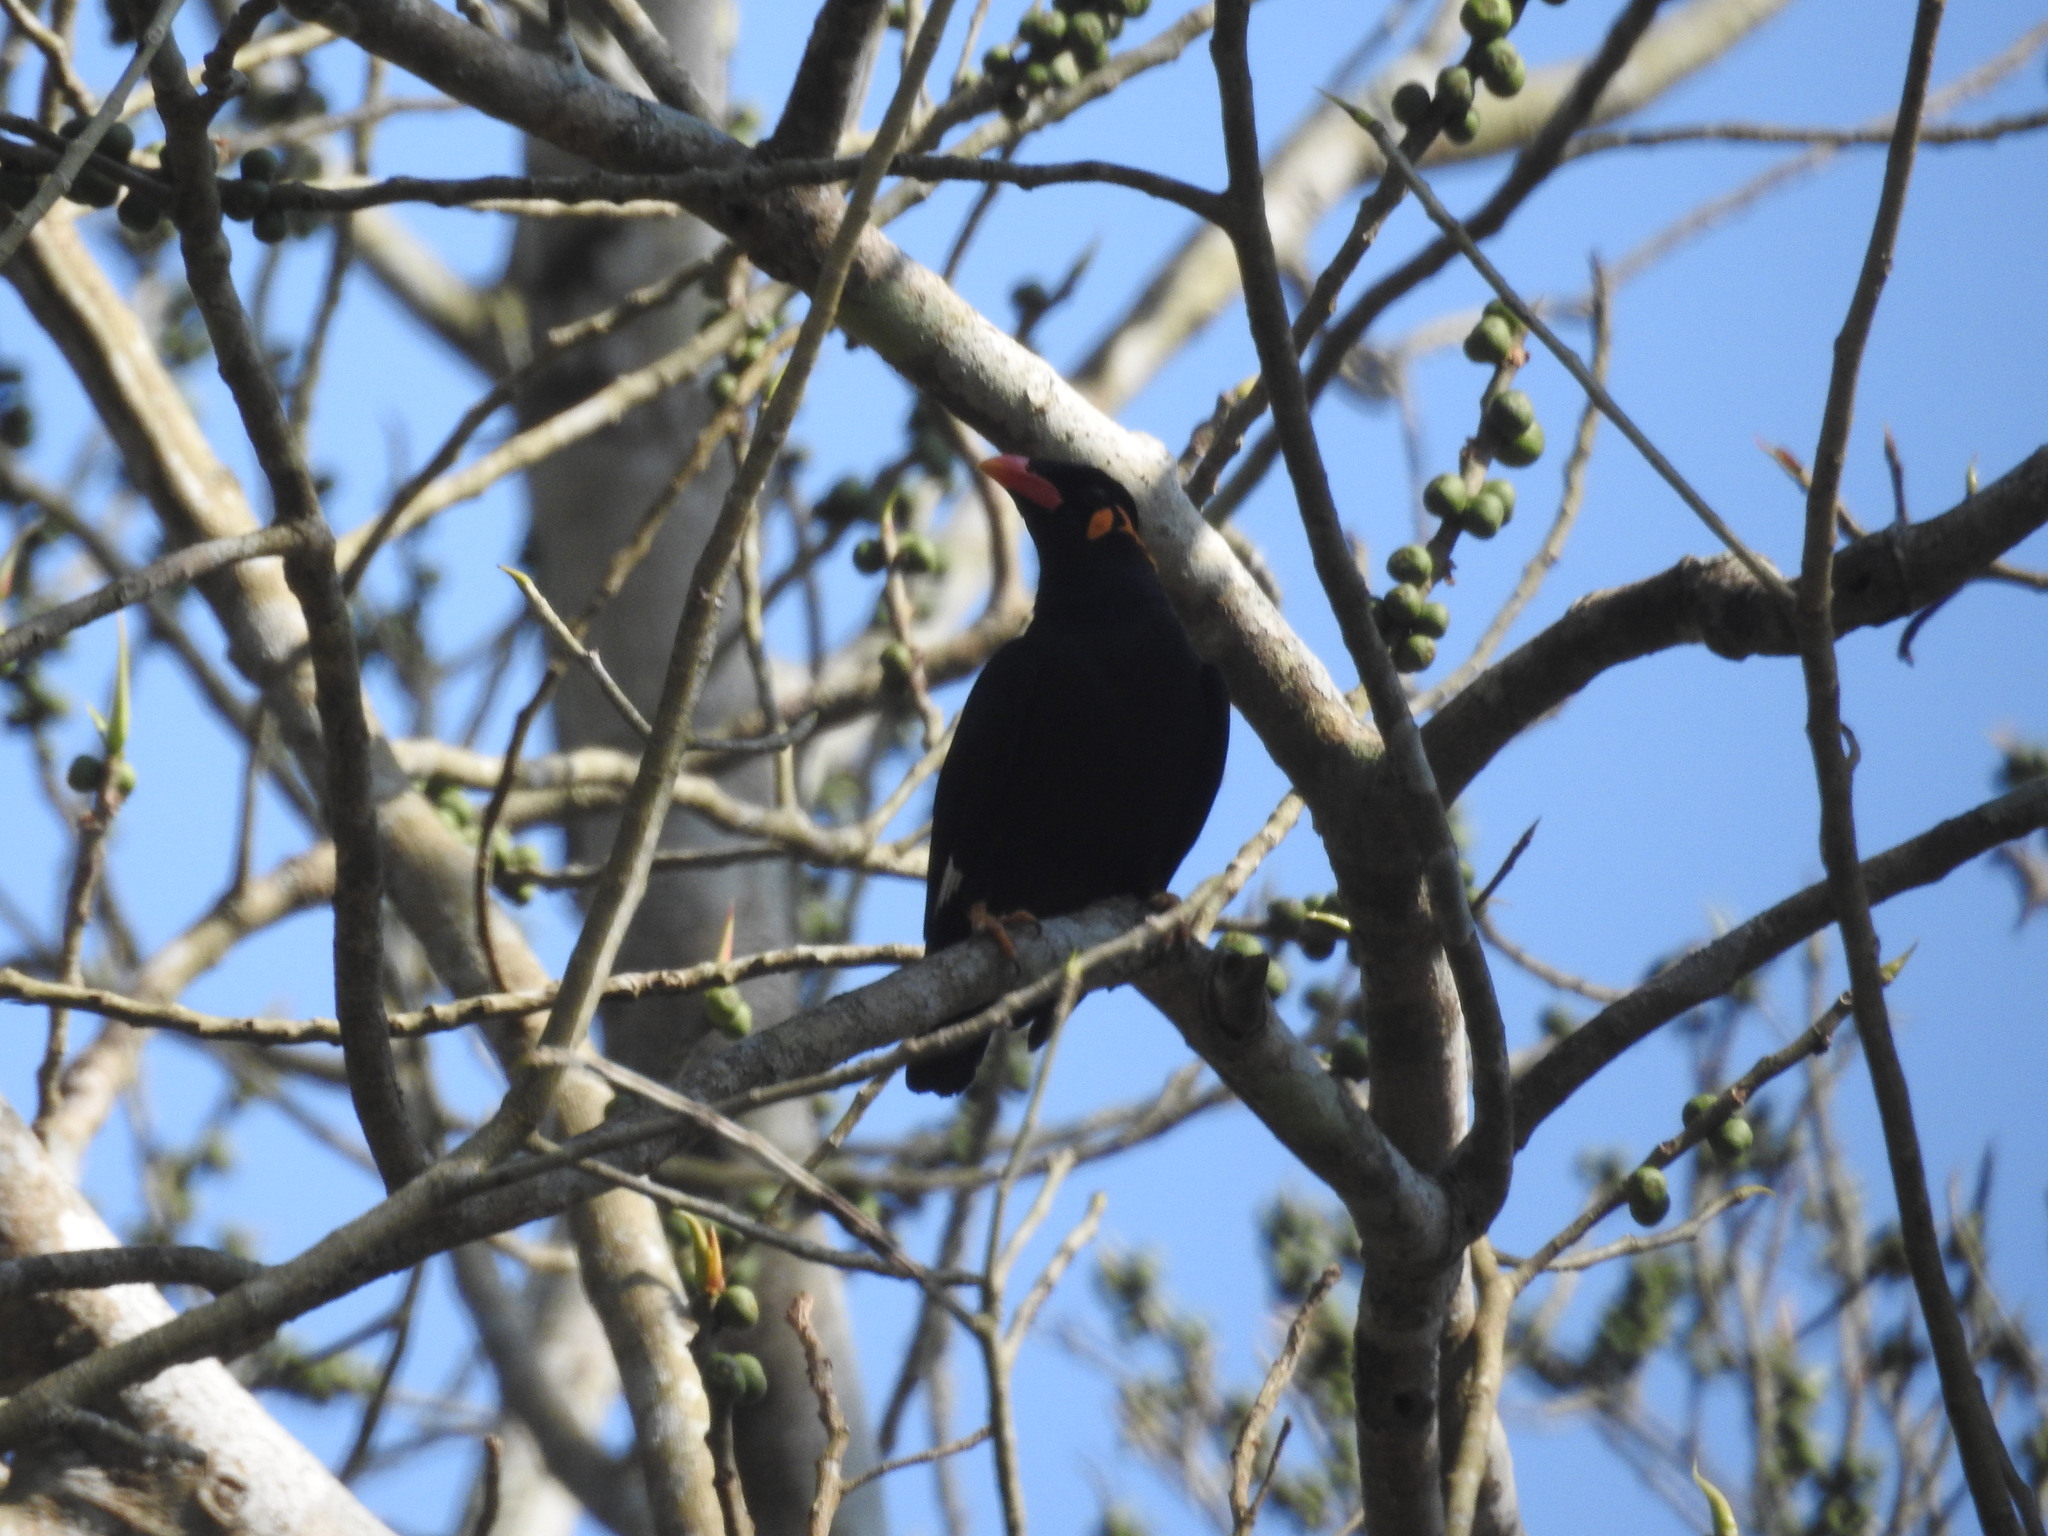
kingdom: Animalia
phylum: Chordata
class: Aves
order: Passeriformes
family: Sturnidae
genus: Gracula
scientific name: Gracula religiosa
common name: Common hill myna
